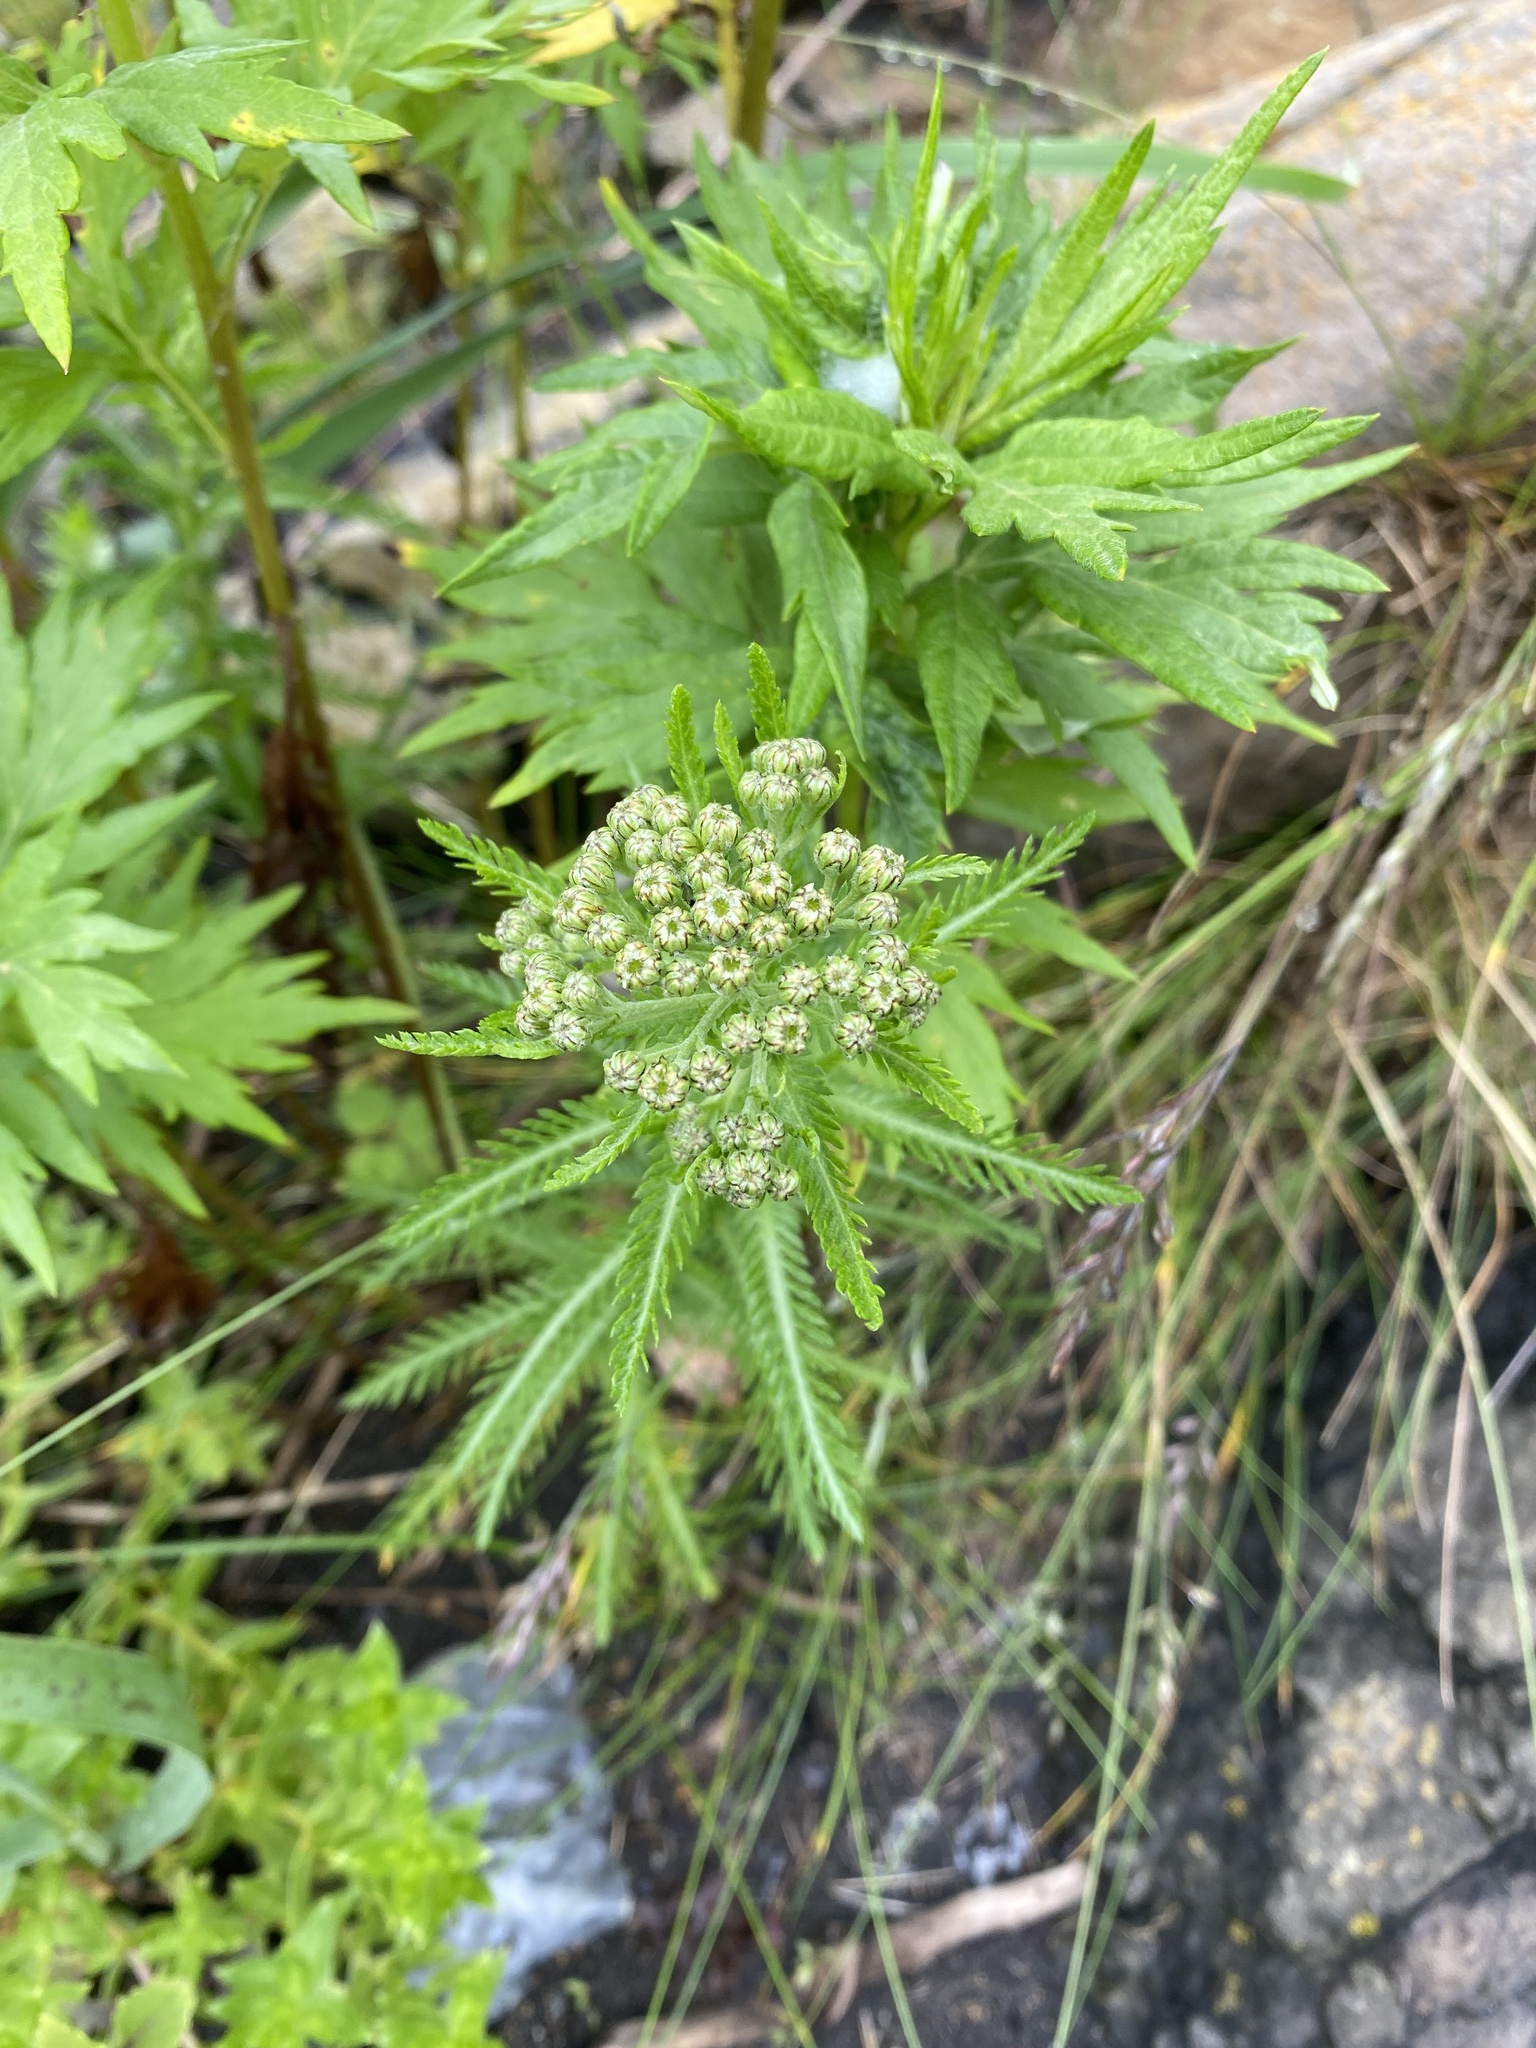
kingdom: Plantae
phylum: Tracheophyta
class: Magnoliopsida
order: Asterales
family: Asteraceae
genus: Achillea
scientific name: Achillea alpina
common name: Siberian yarrow
